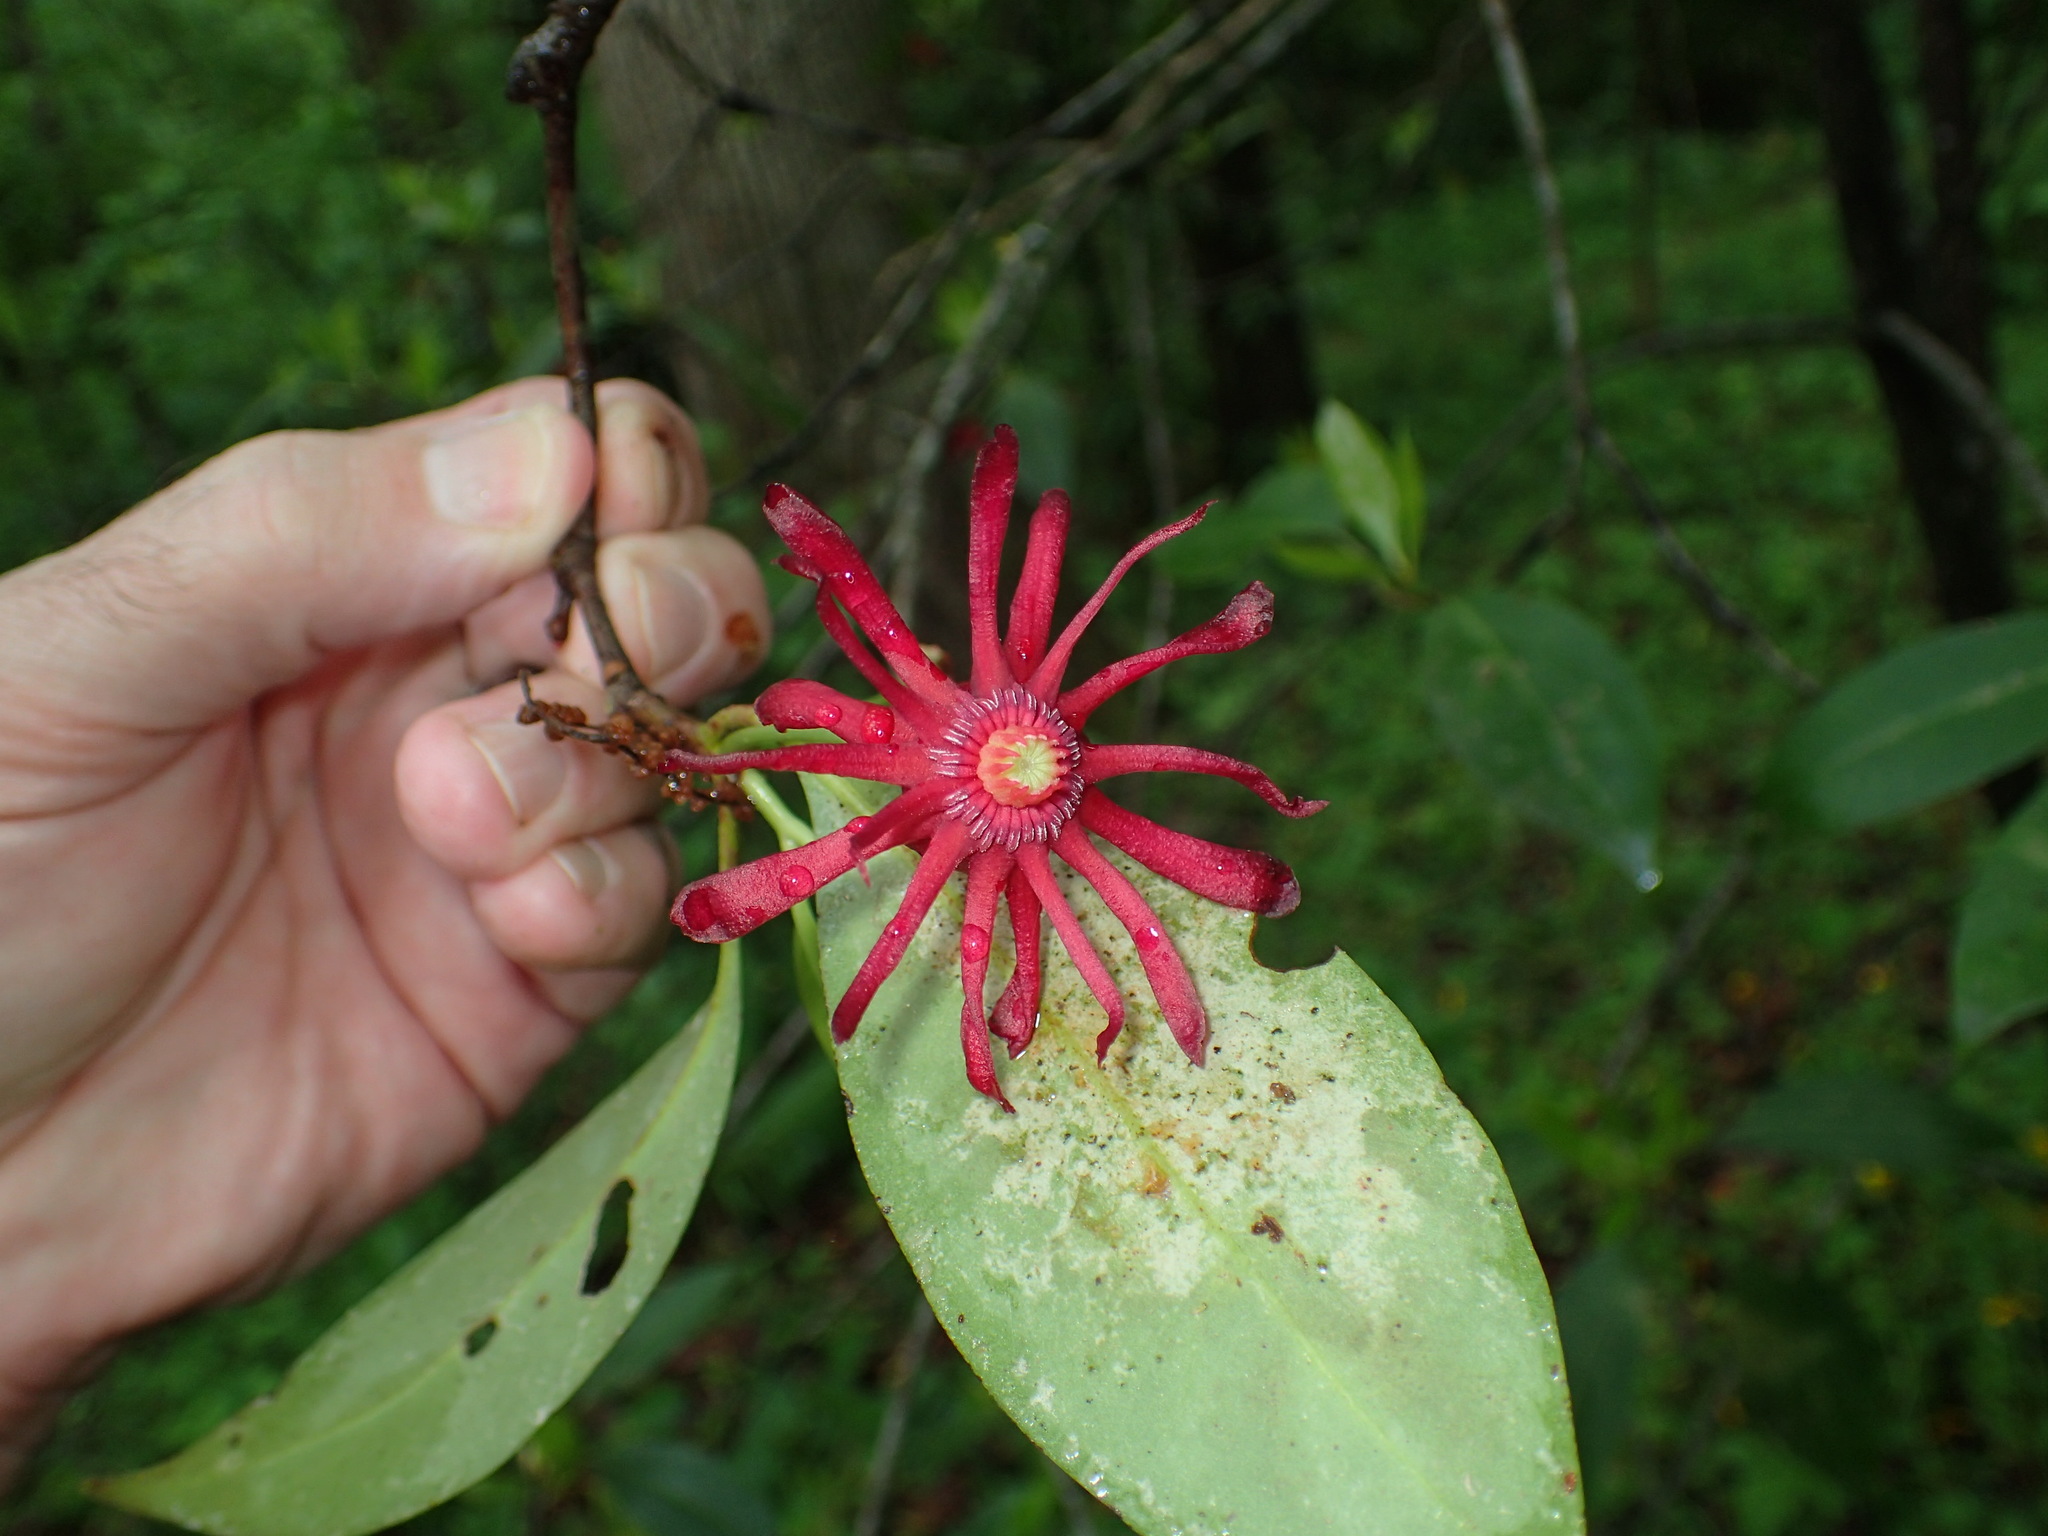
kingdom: Plantae
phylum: Tracheophyta
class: Magnoliopsida
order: Austrobaileyales
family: Schisandraceae
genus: Illicium
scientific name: Illicium floridanum
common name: Florida anisetree
